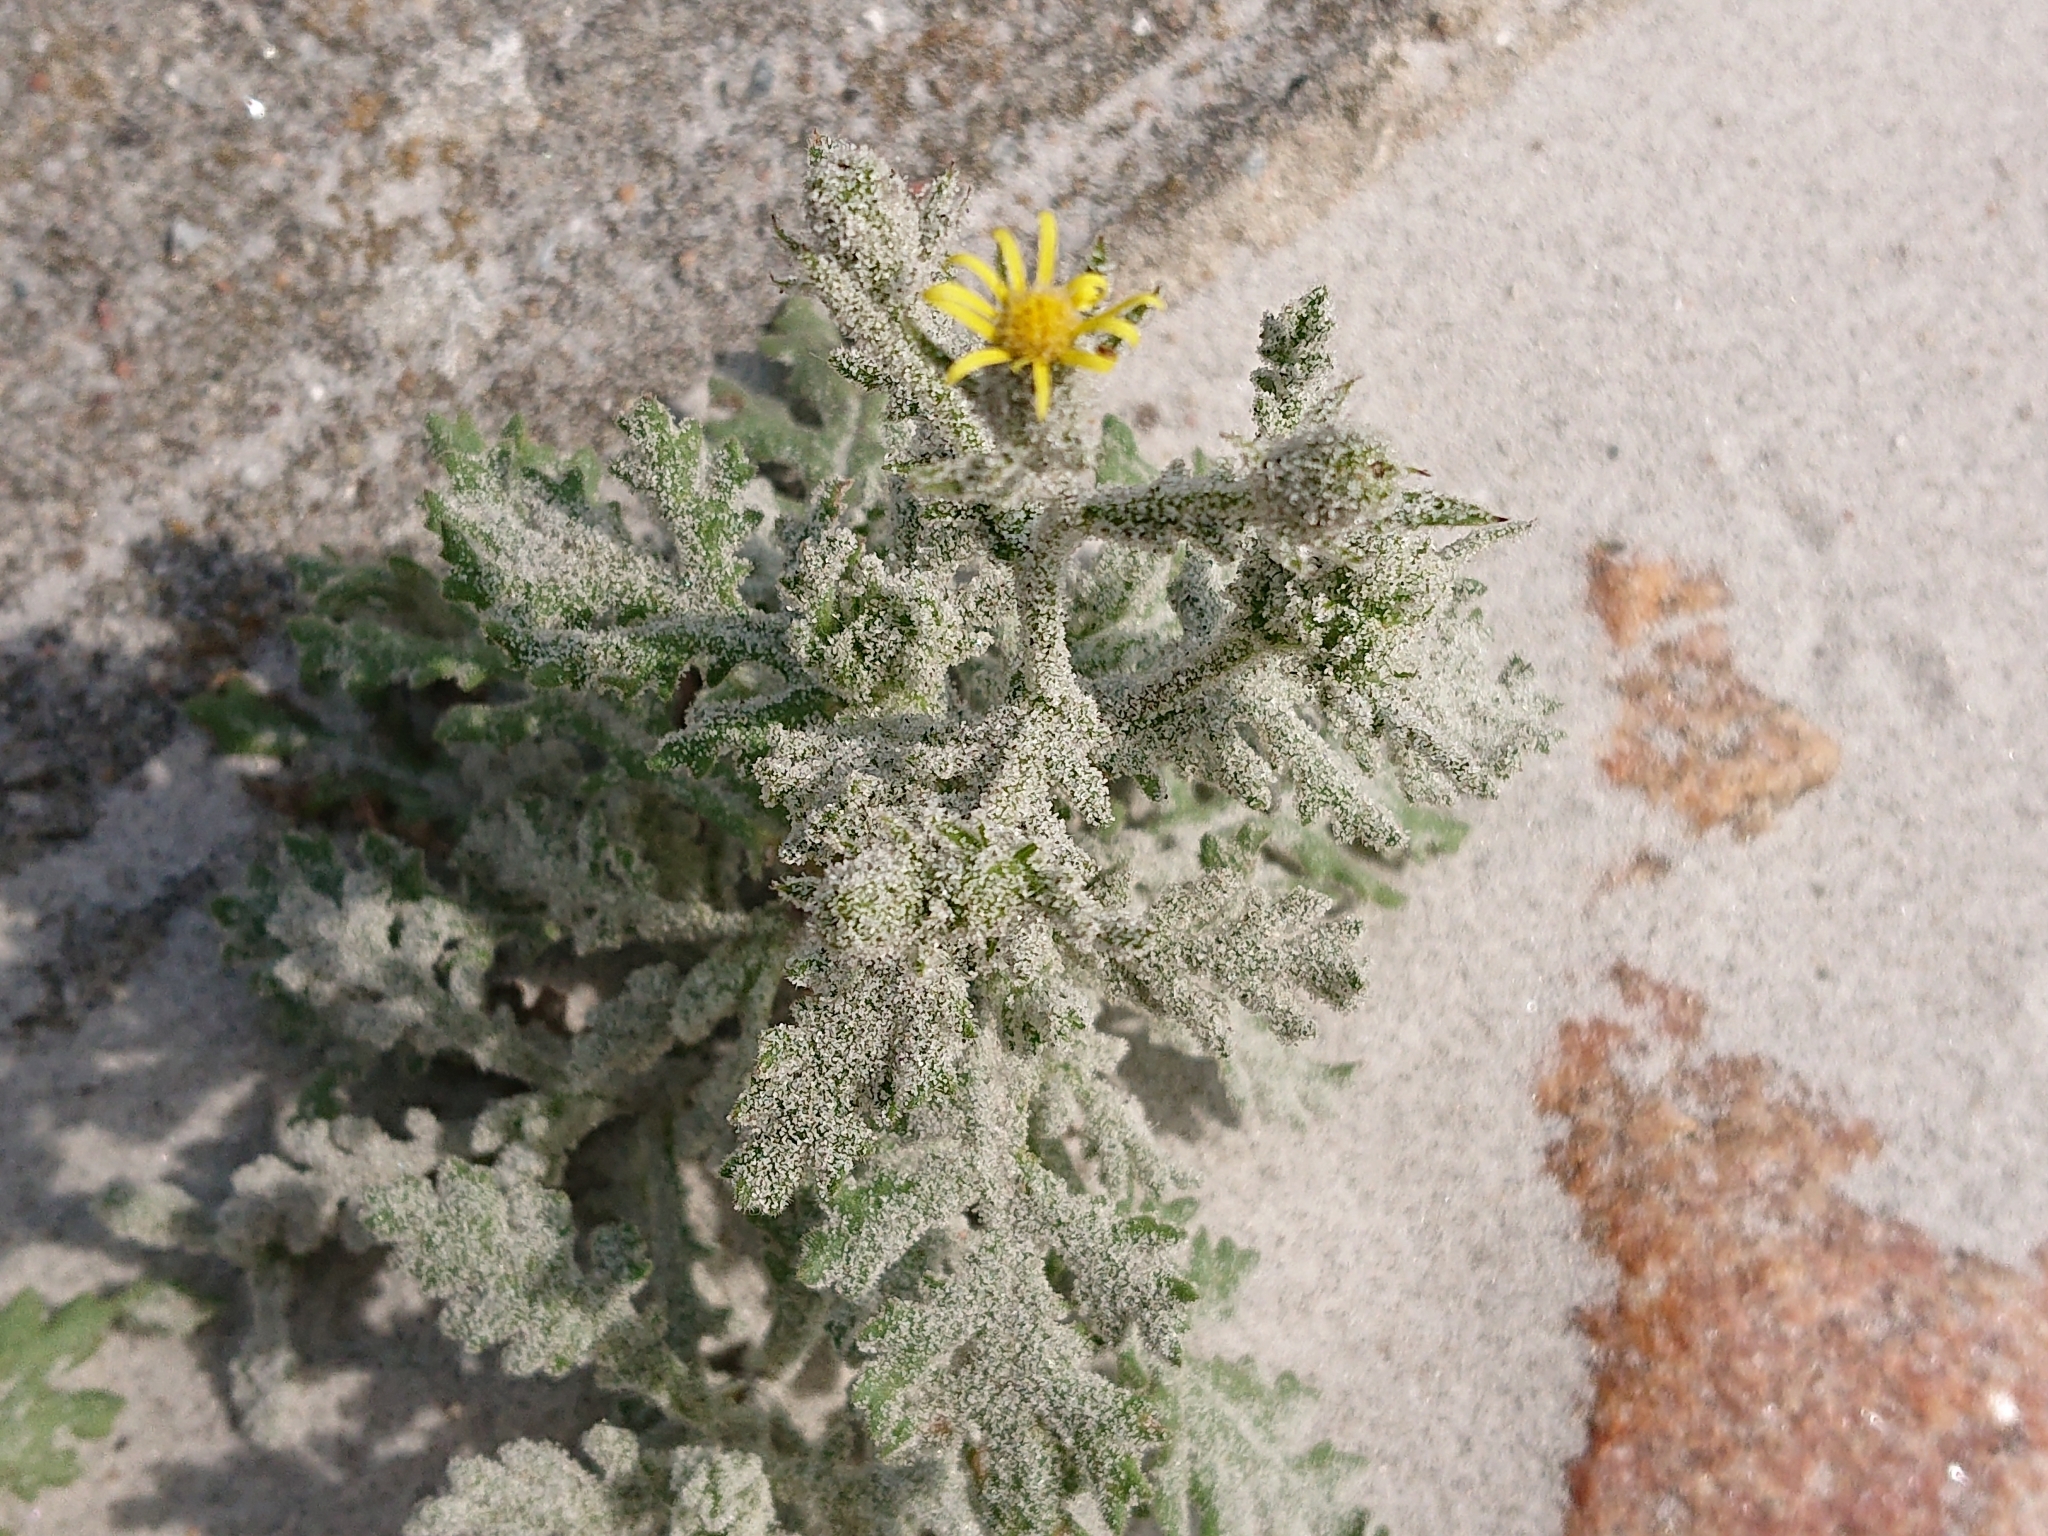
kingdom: Plantae
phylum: Tracheophyta
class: Magnoliopsida
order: Asterales
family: Asteraceae
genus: Senecio
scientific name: Senecio viscosus
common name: Sticky groundsel
